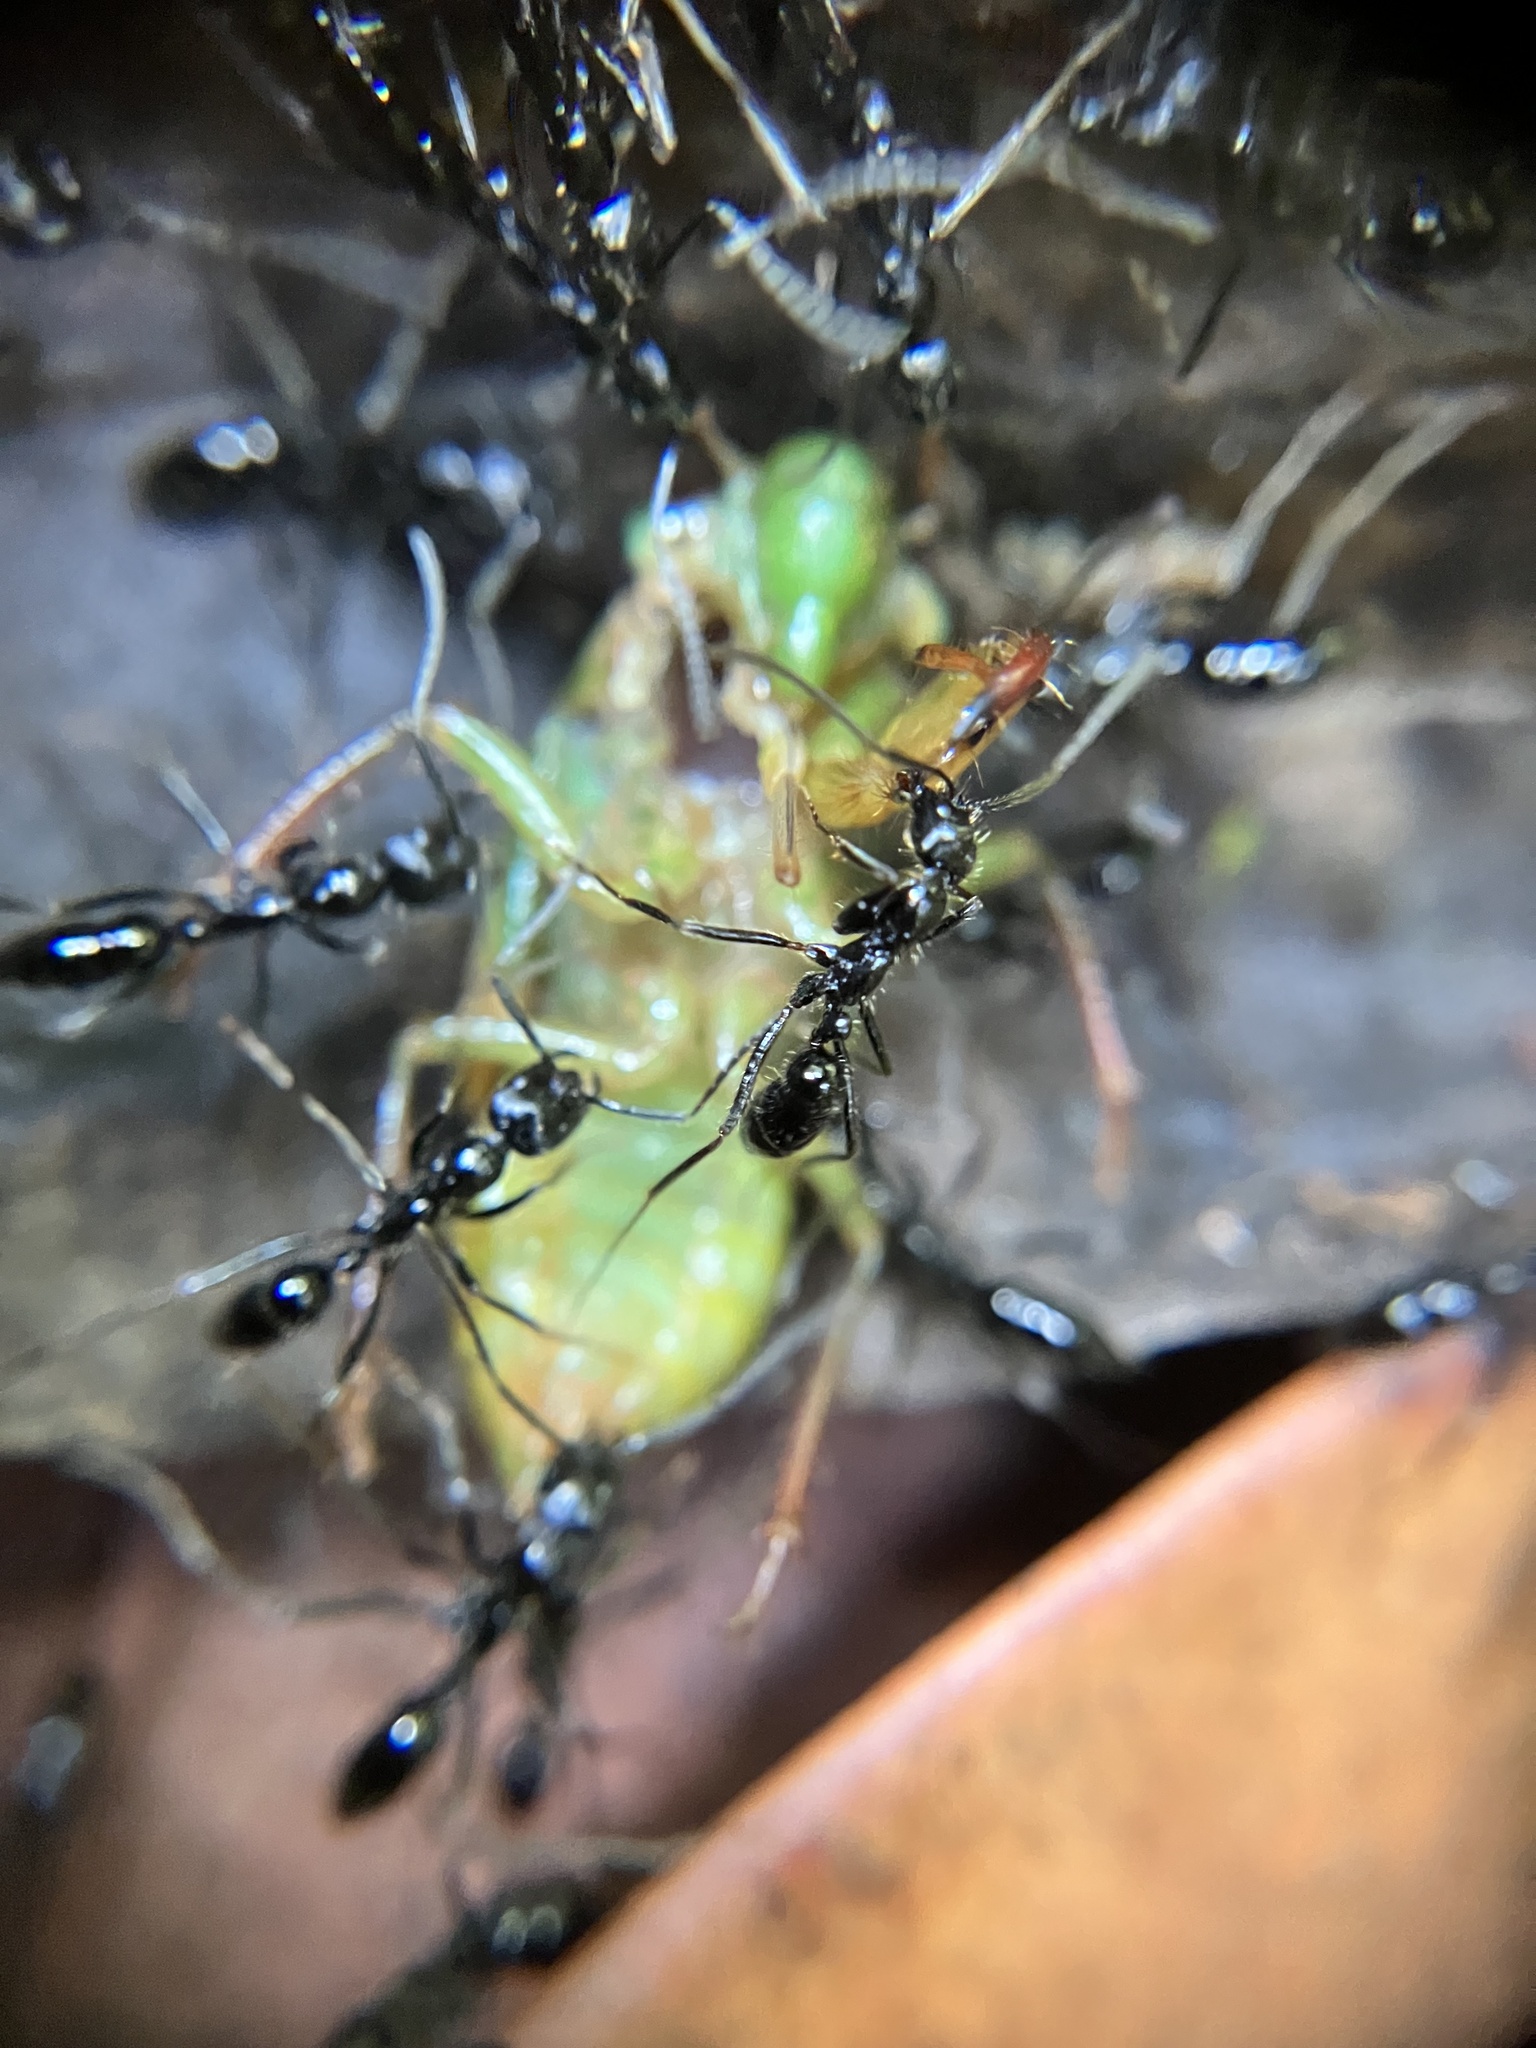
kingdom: Animalia
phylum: Arthropoda
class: Insecta
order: Hymenoptera
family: Formicidae
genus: Leptogenys
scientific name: Leptogenys diminuta
